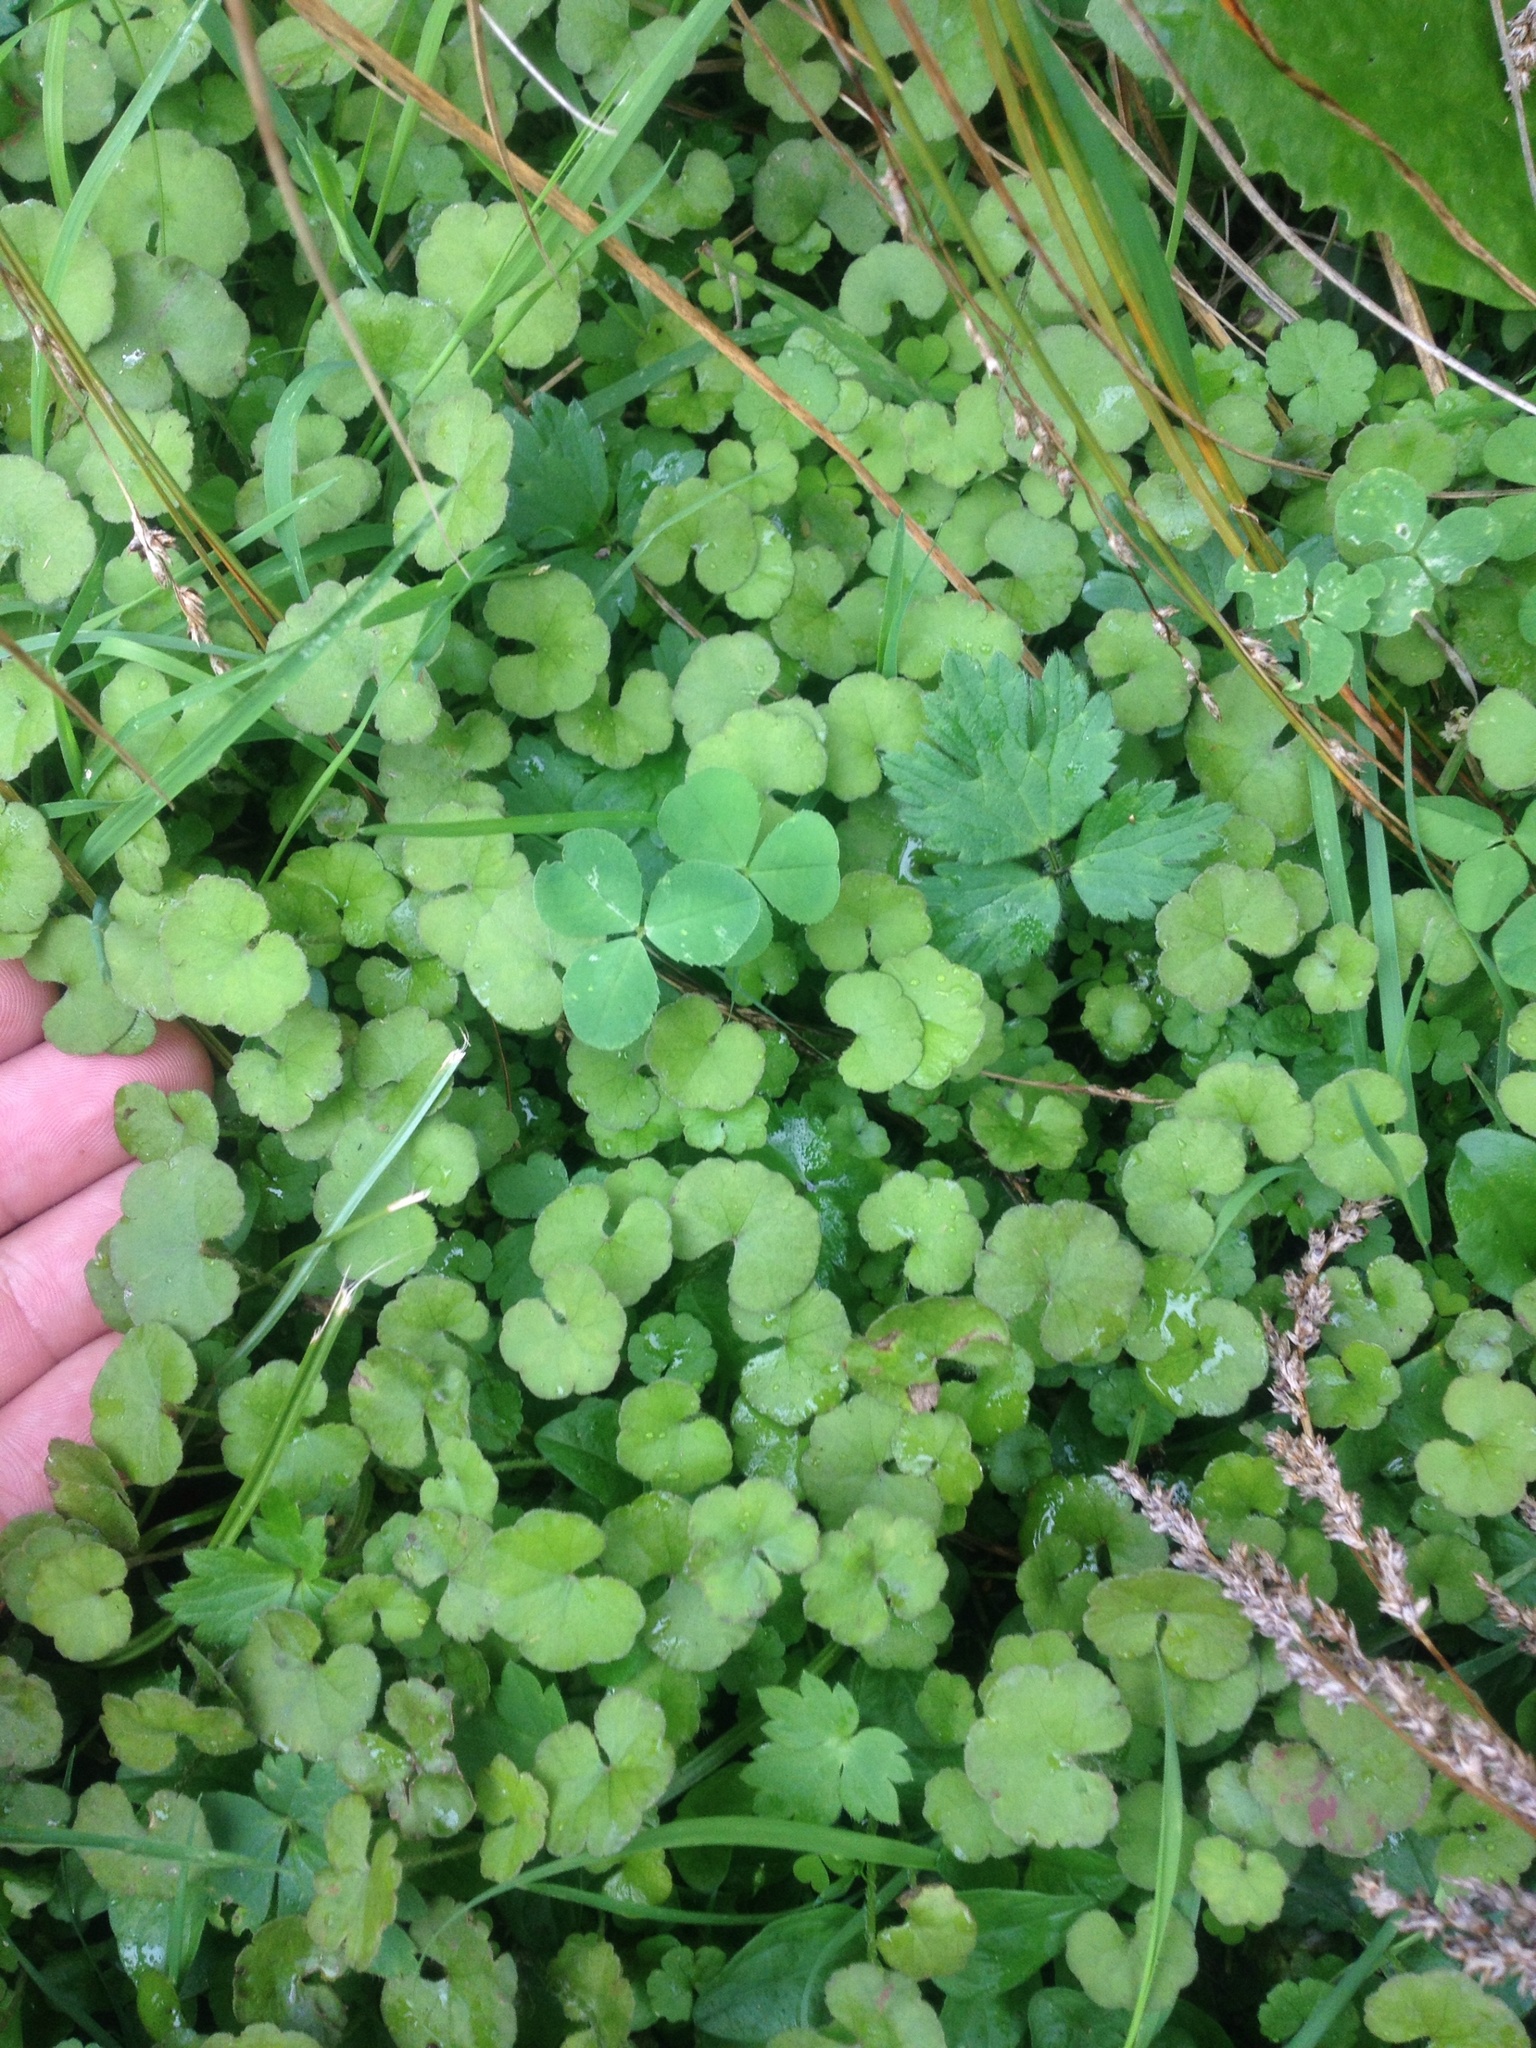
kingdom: Plantae
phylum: Tracheophyta
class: Magnoliopsida
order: Apiales
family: Araliaceae
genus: Hydrocotyle
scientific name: Hydrocotyle robusta
